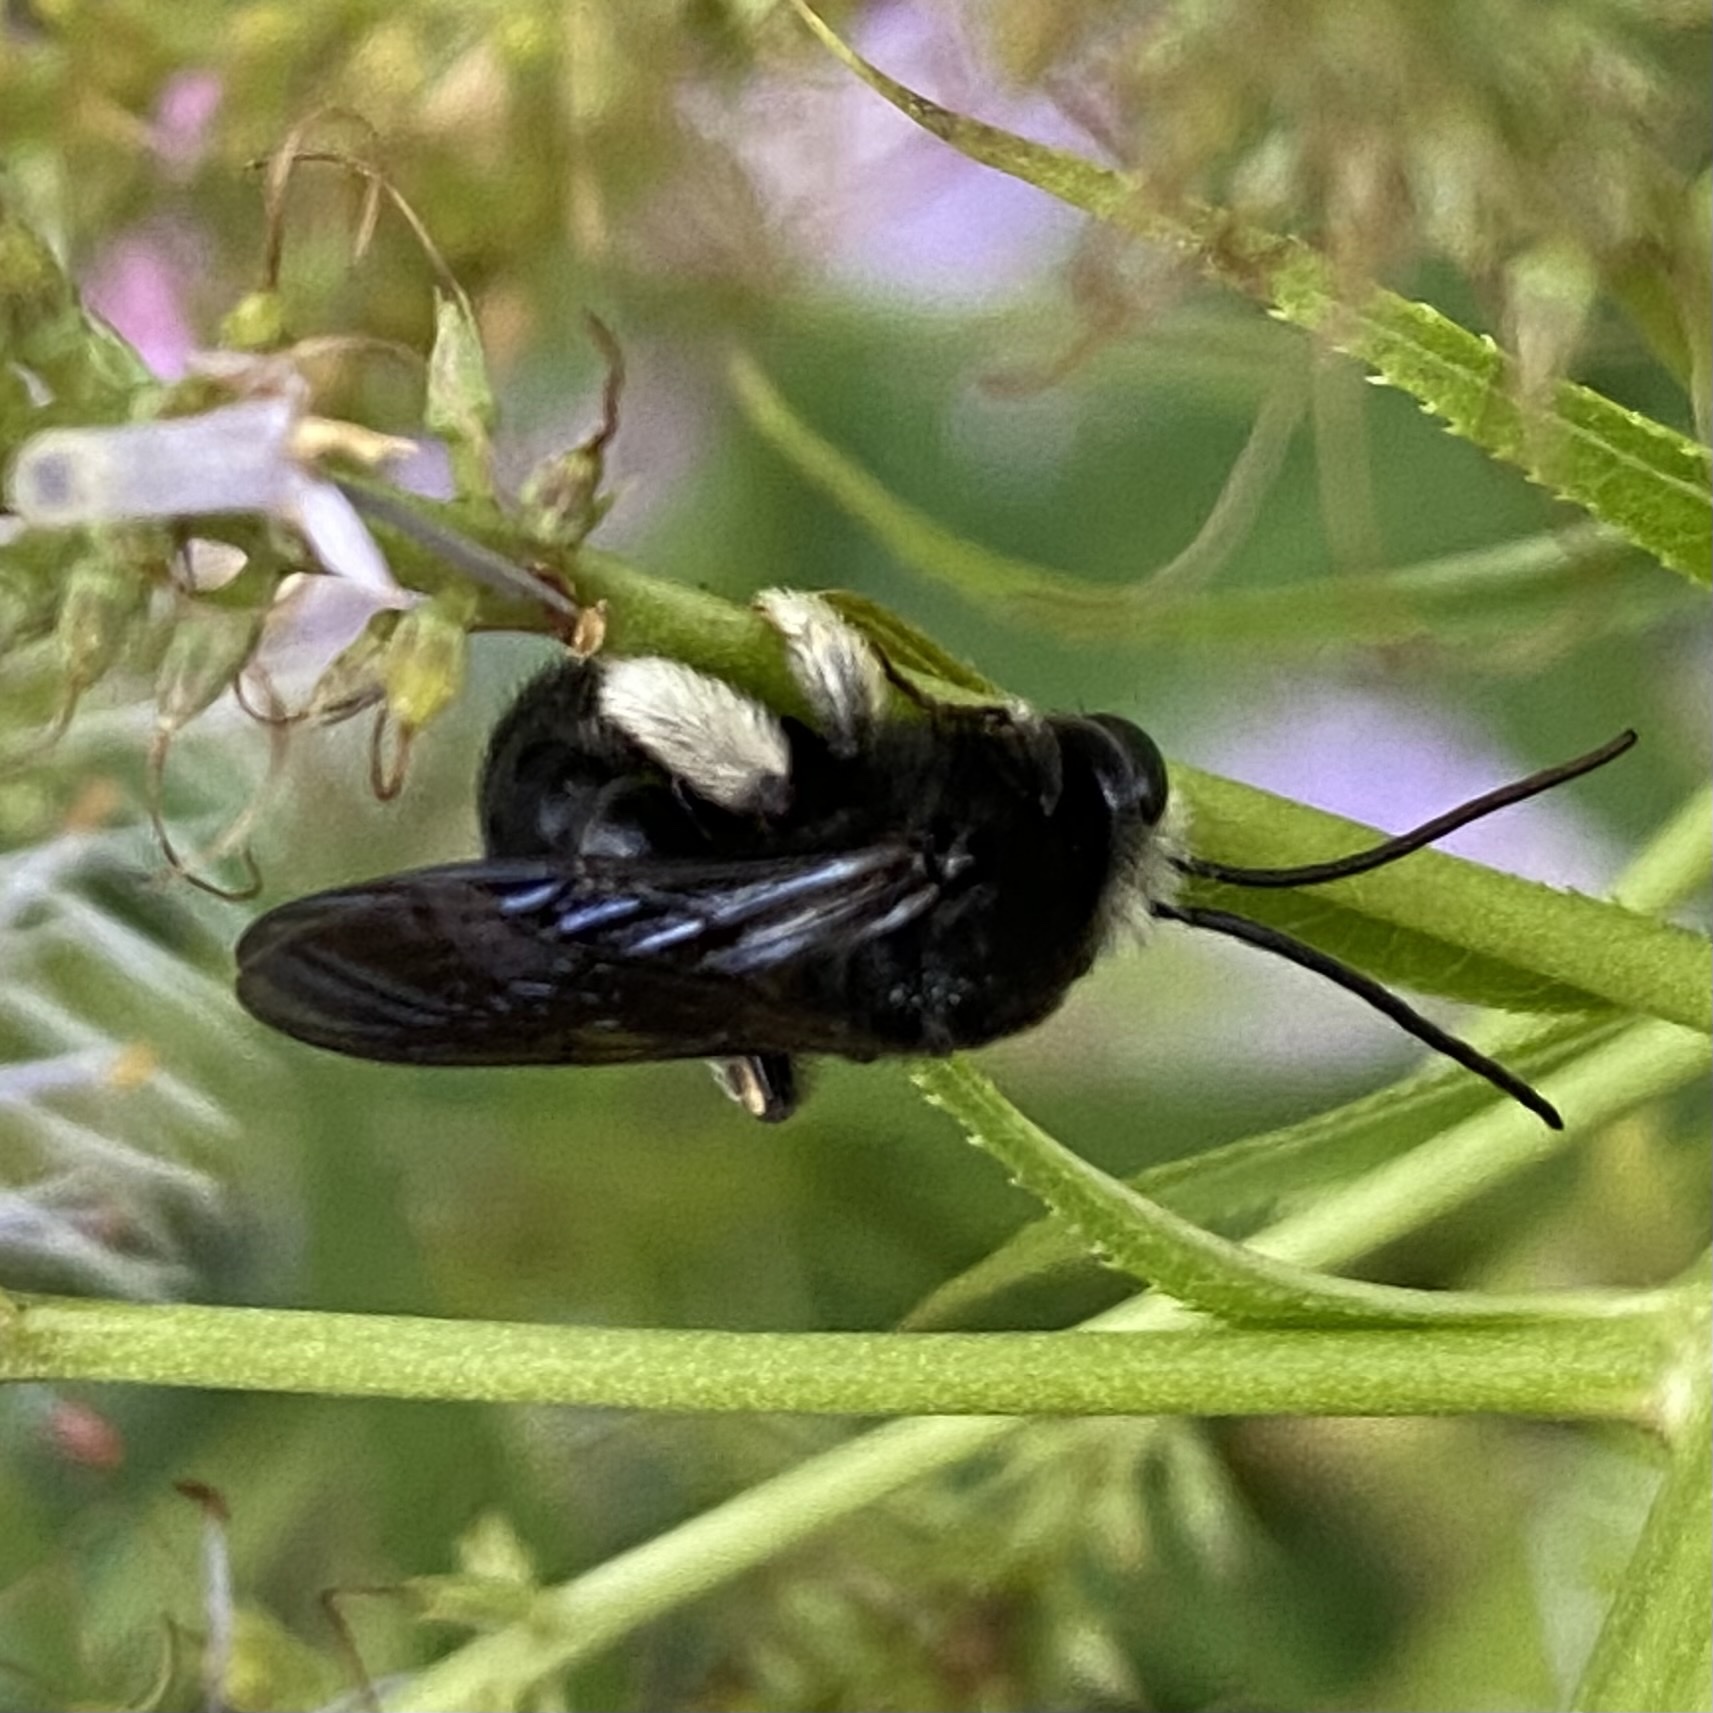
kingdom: Animalia
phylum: Arthropoda
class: Insecta
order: Hymenoptera
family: Apidae
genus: Melissodes
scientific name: Melissodes bimaculatus
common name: Two-spotted long-horned bee
